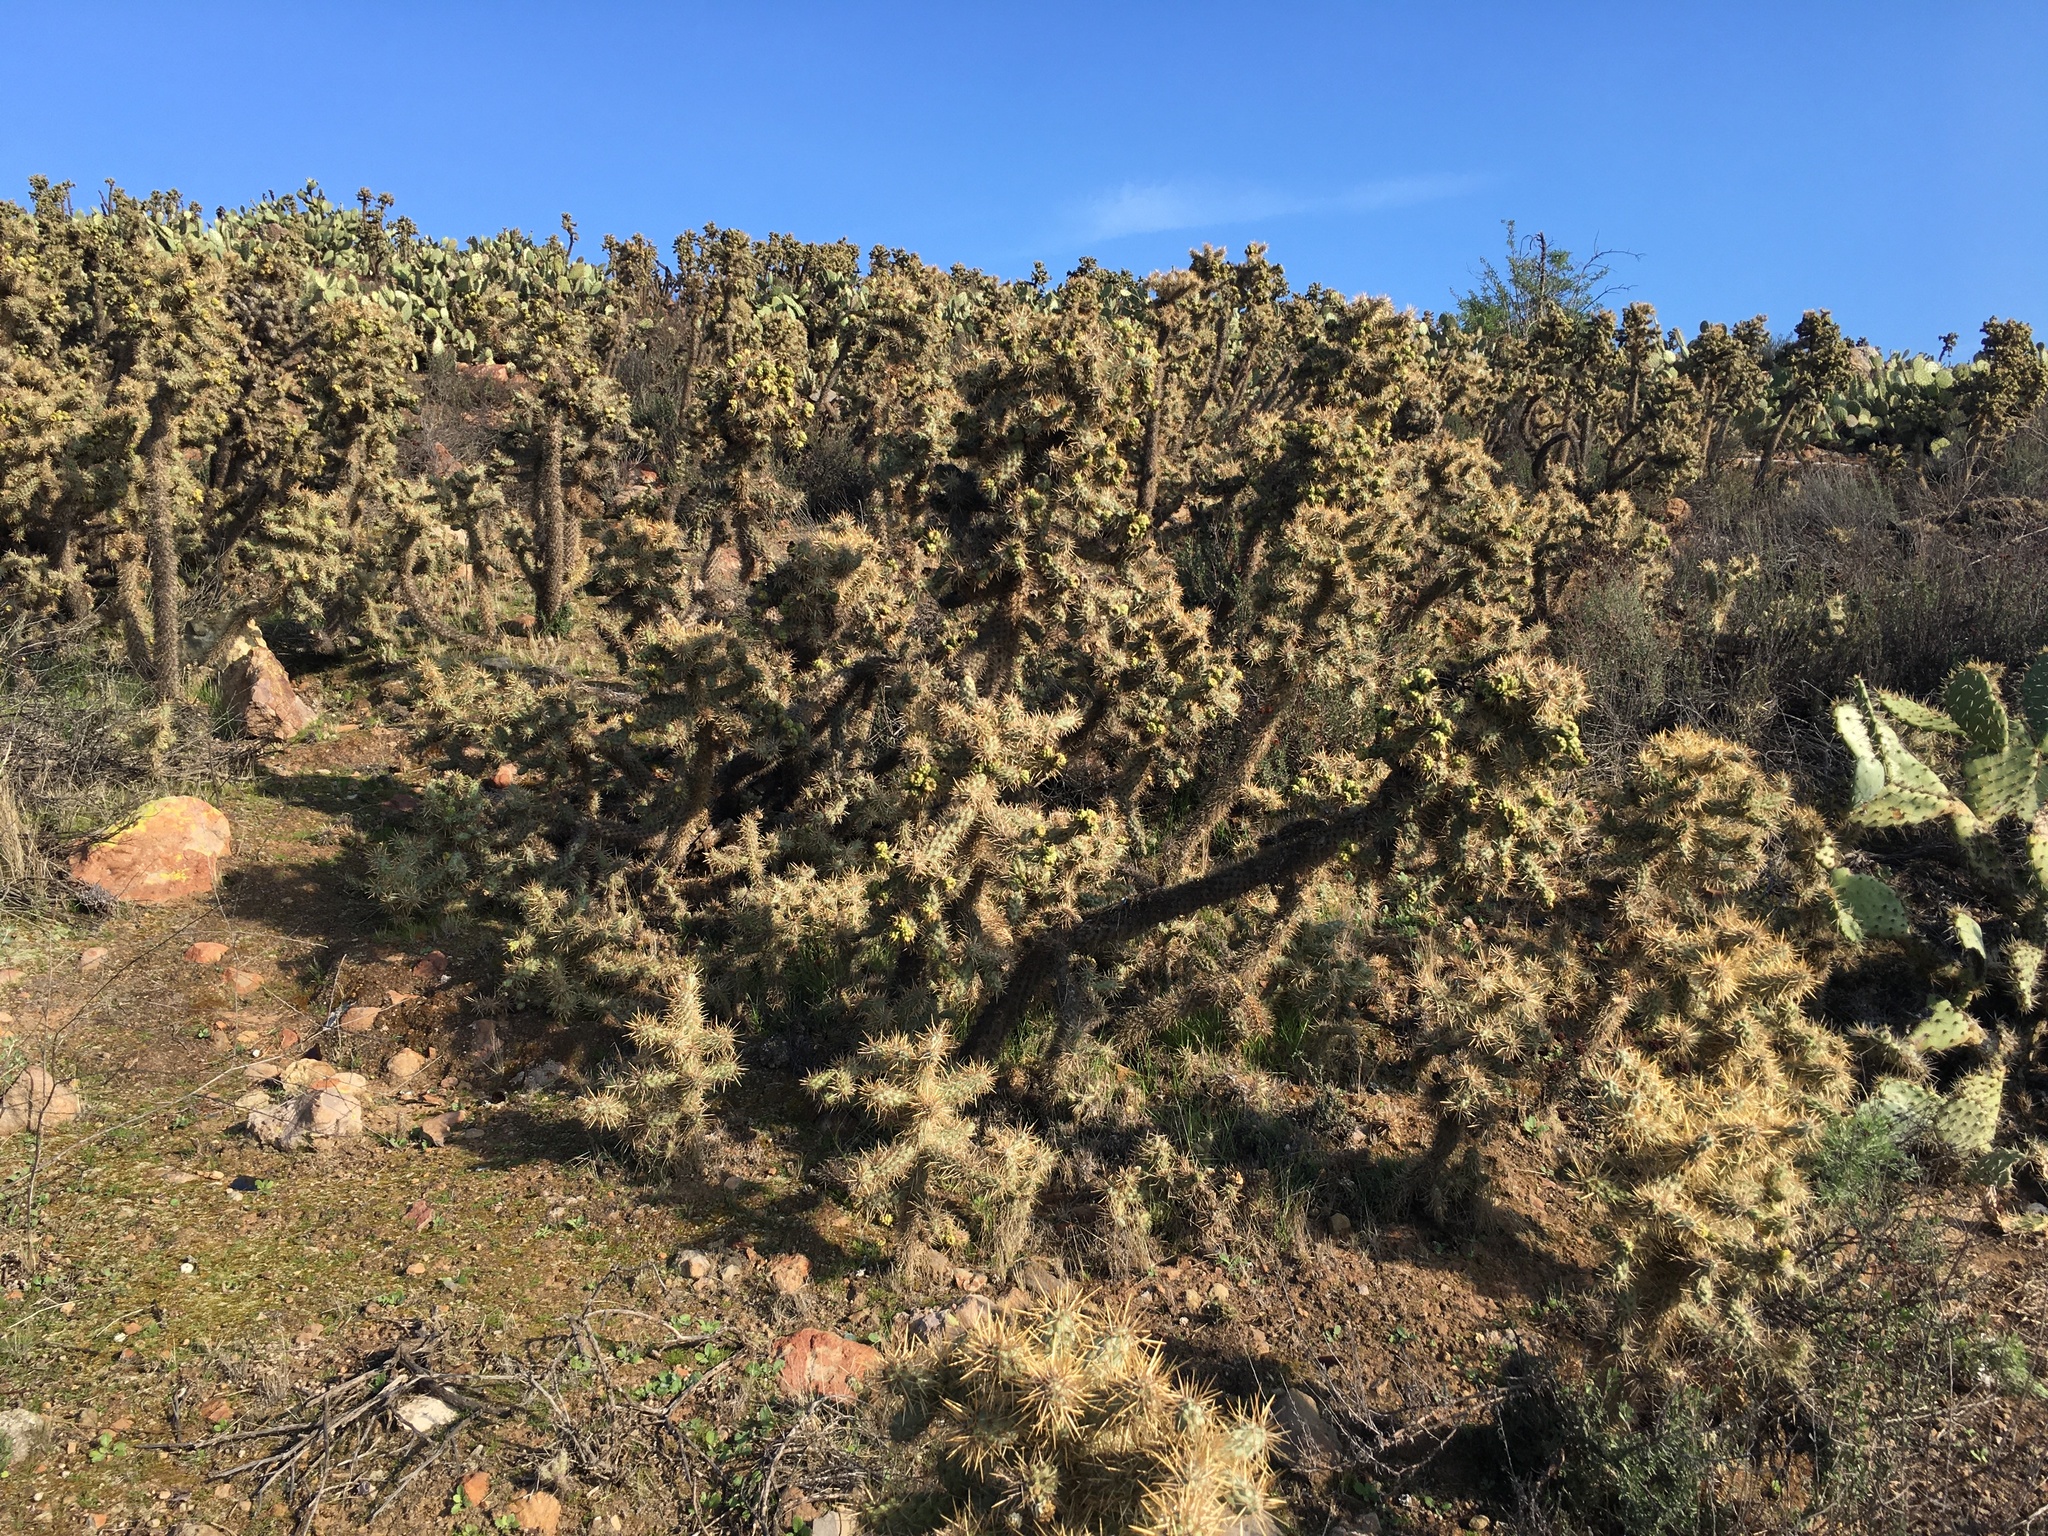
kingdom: Plantae
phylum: Tracheophyta
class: Magnoliopsida
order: Caryophyllales
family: Cactaceae
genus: Cylindropuntia
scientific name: Cylindropuntia prolifera
